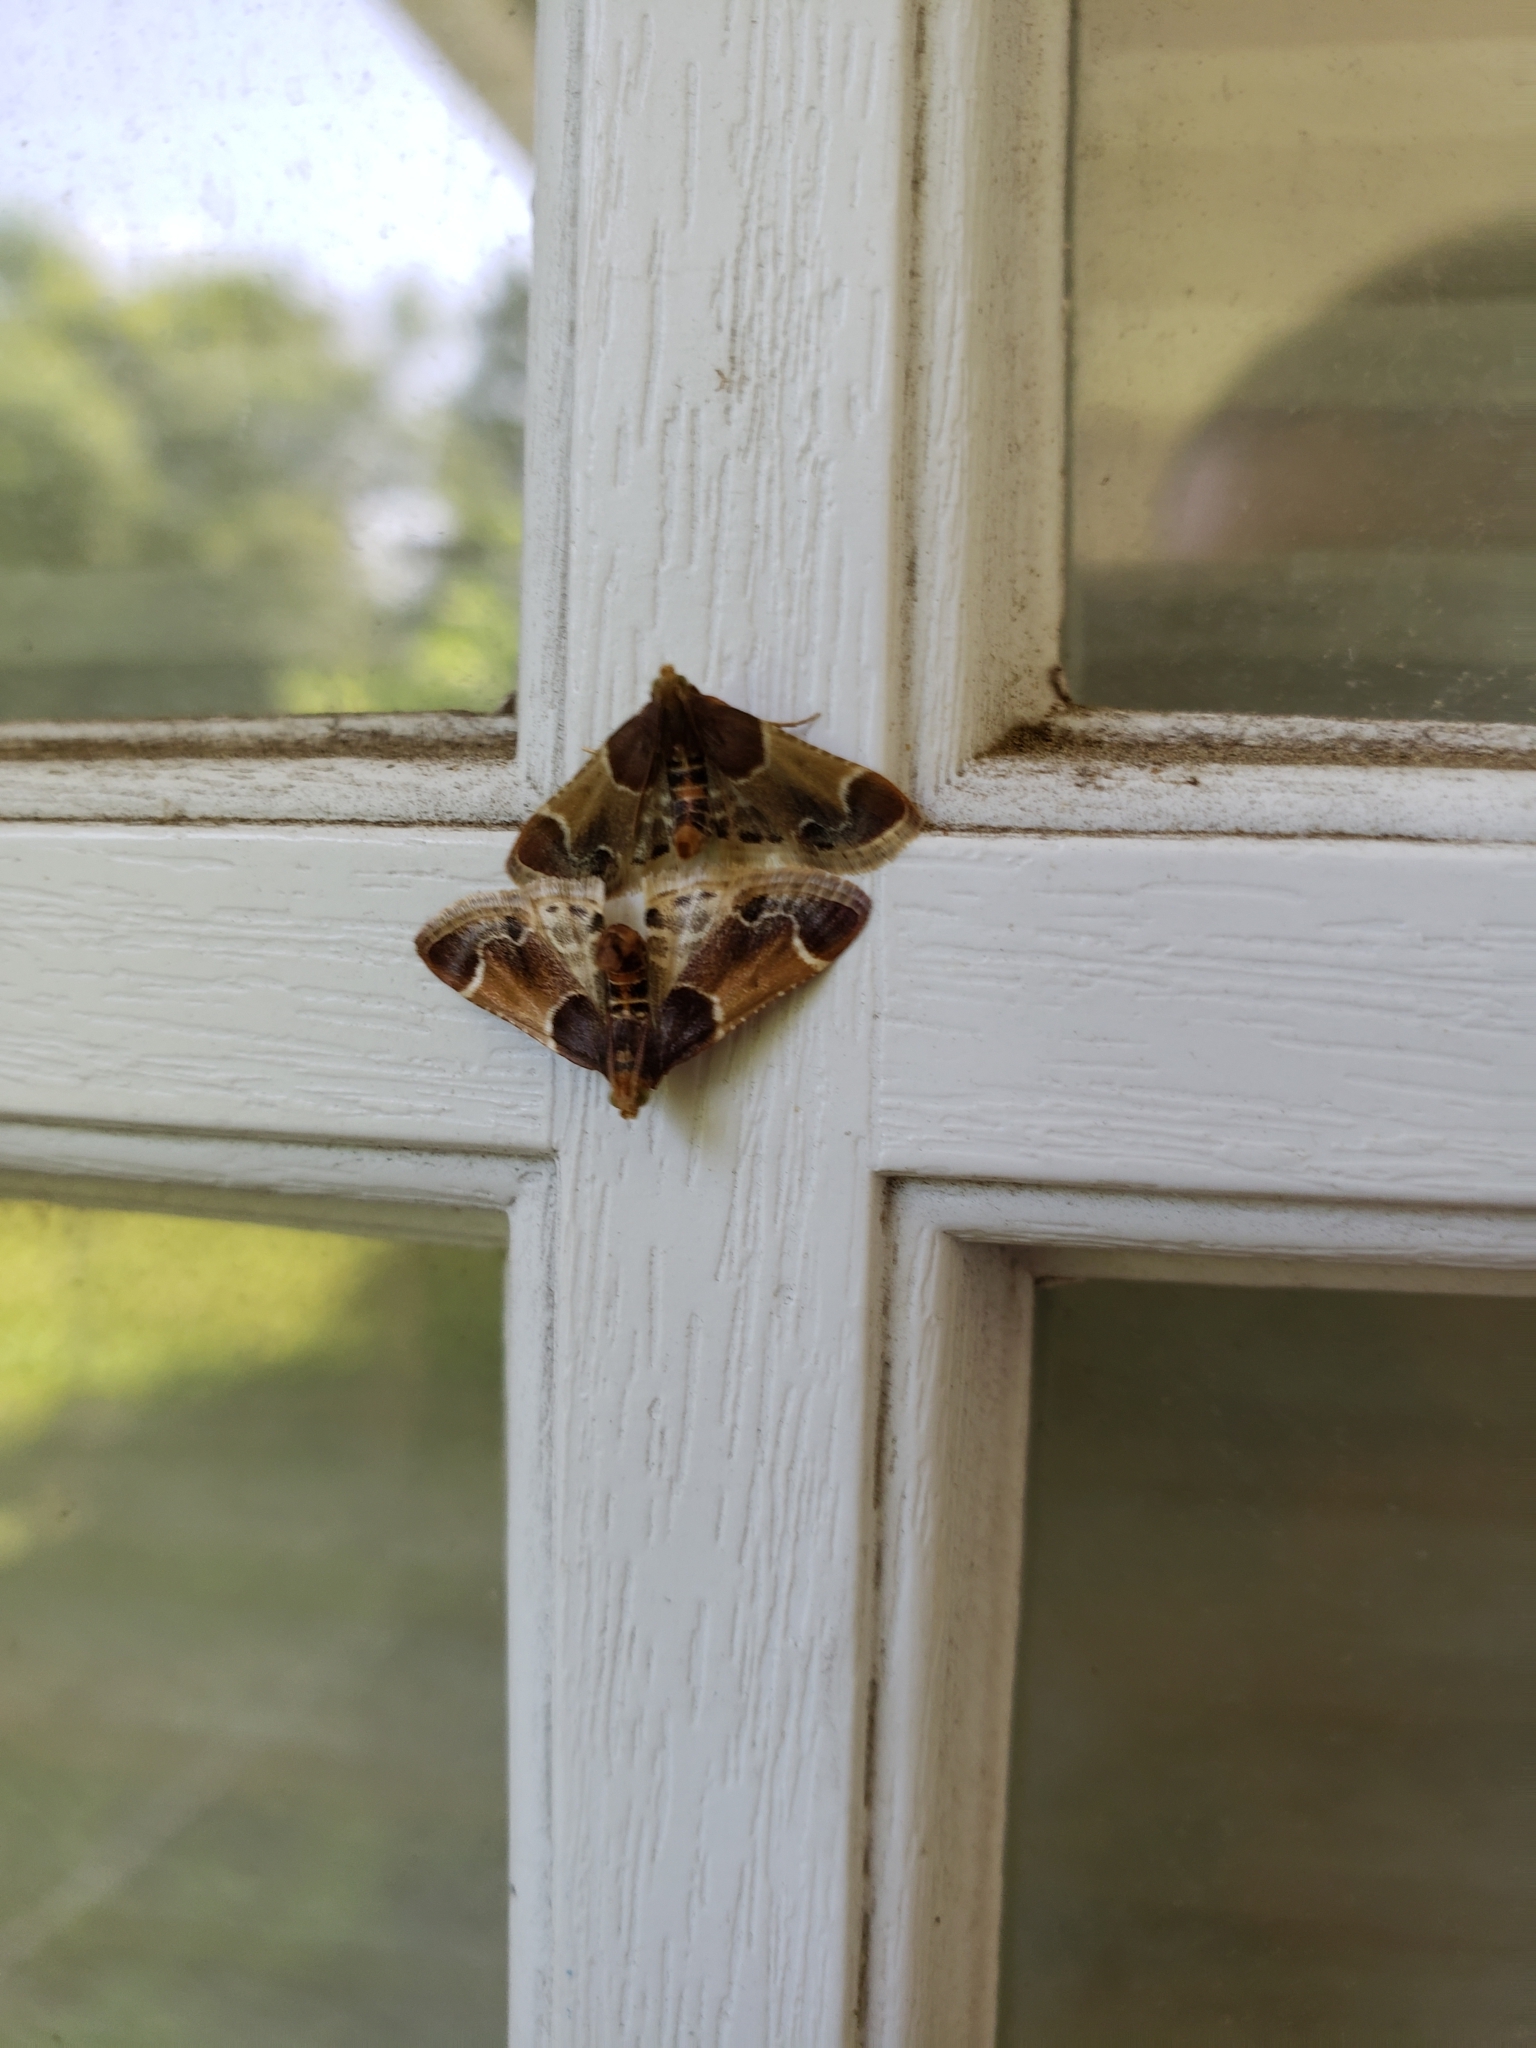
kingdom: Animalia
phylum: Arthropoda
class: Insecta
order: Lepidoptera
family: Pyralidae
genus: Pyralis
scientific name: Pyralis farinalis
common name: Meal moth
